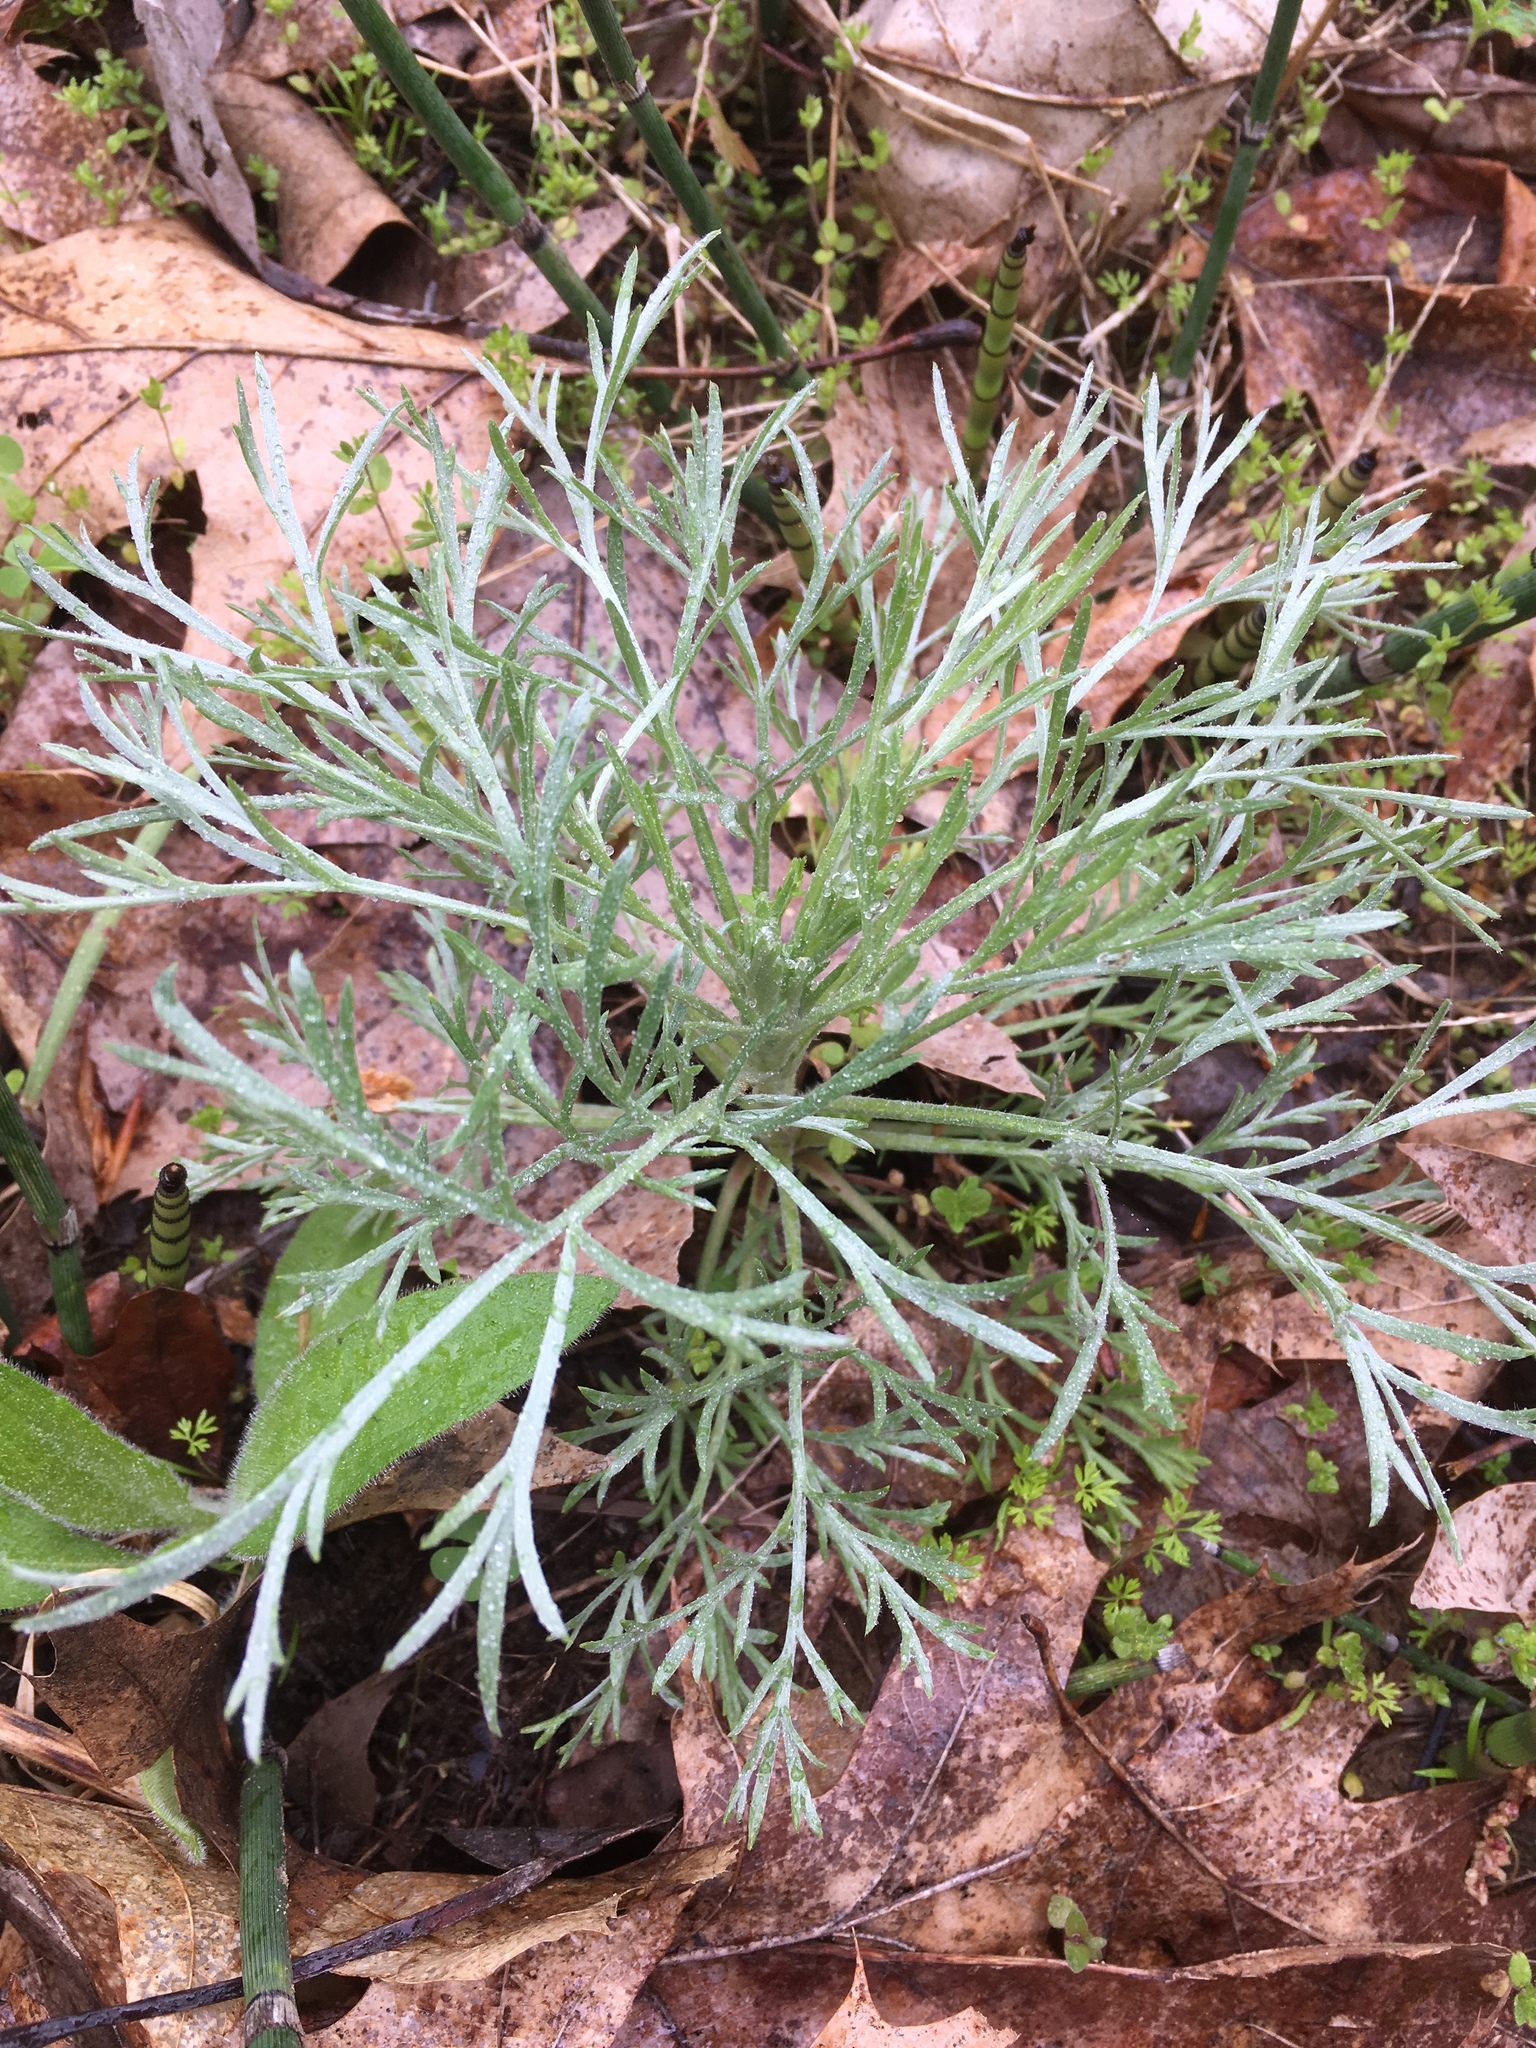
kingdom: Plantae
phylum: Tracheophyta
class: Magnoliopsida
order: Asterales
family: Asteraceae
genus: Artemisia
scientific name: Artemisia campestris
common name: Field wormwood
